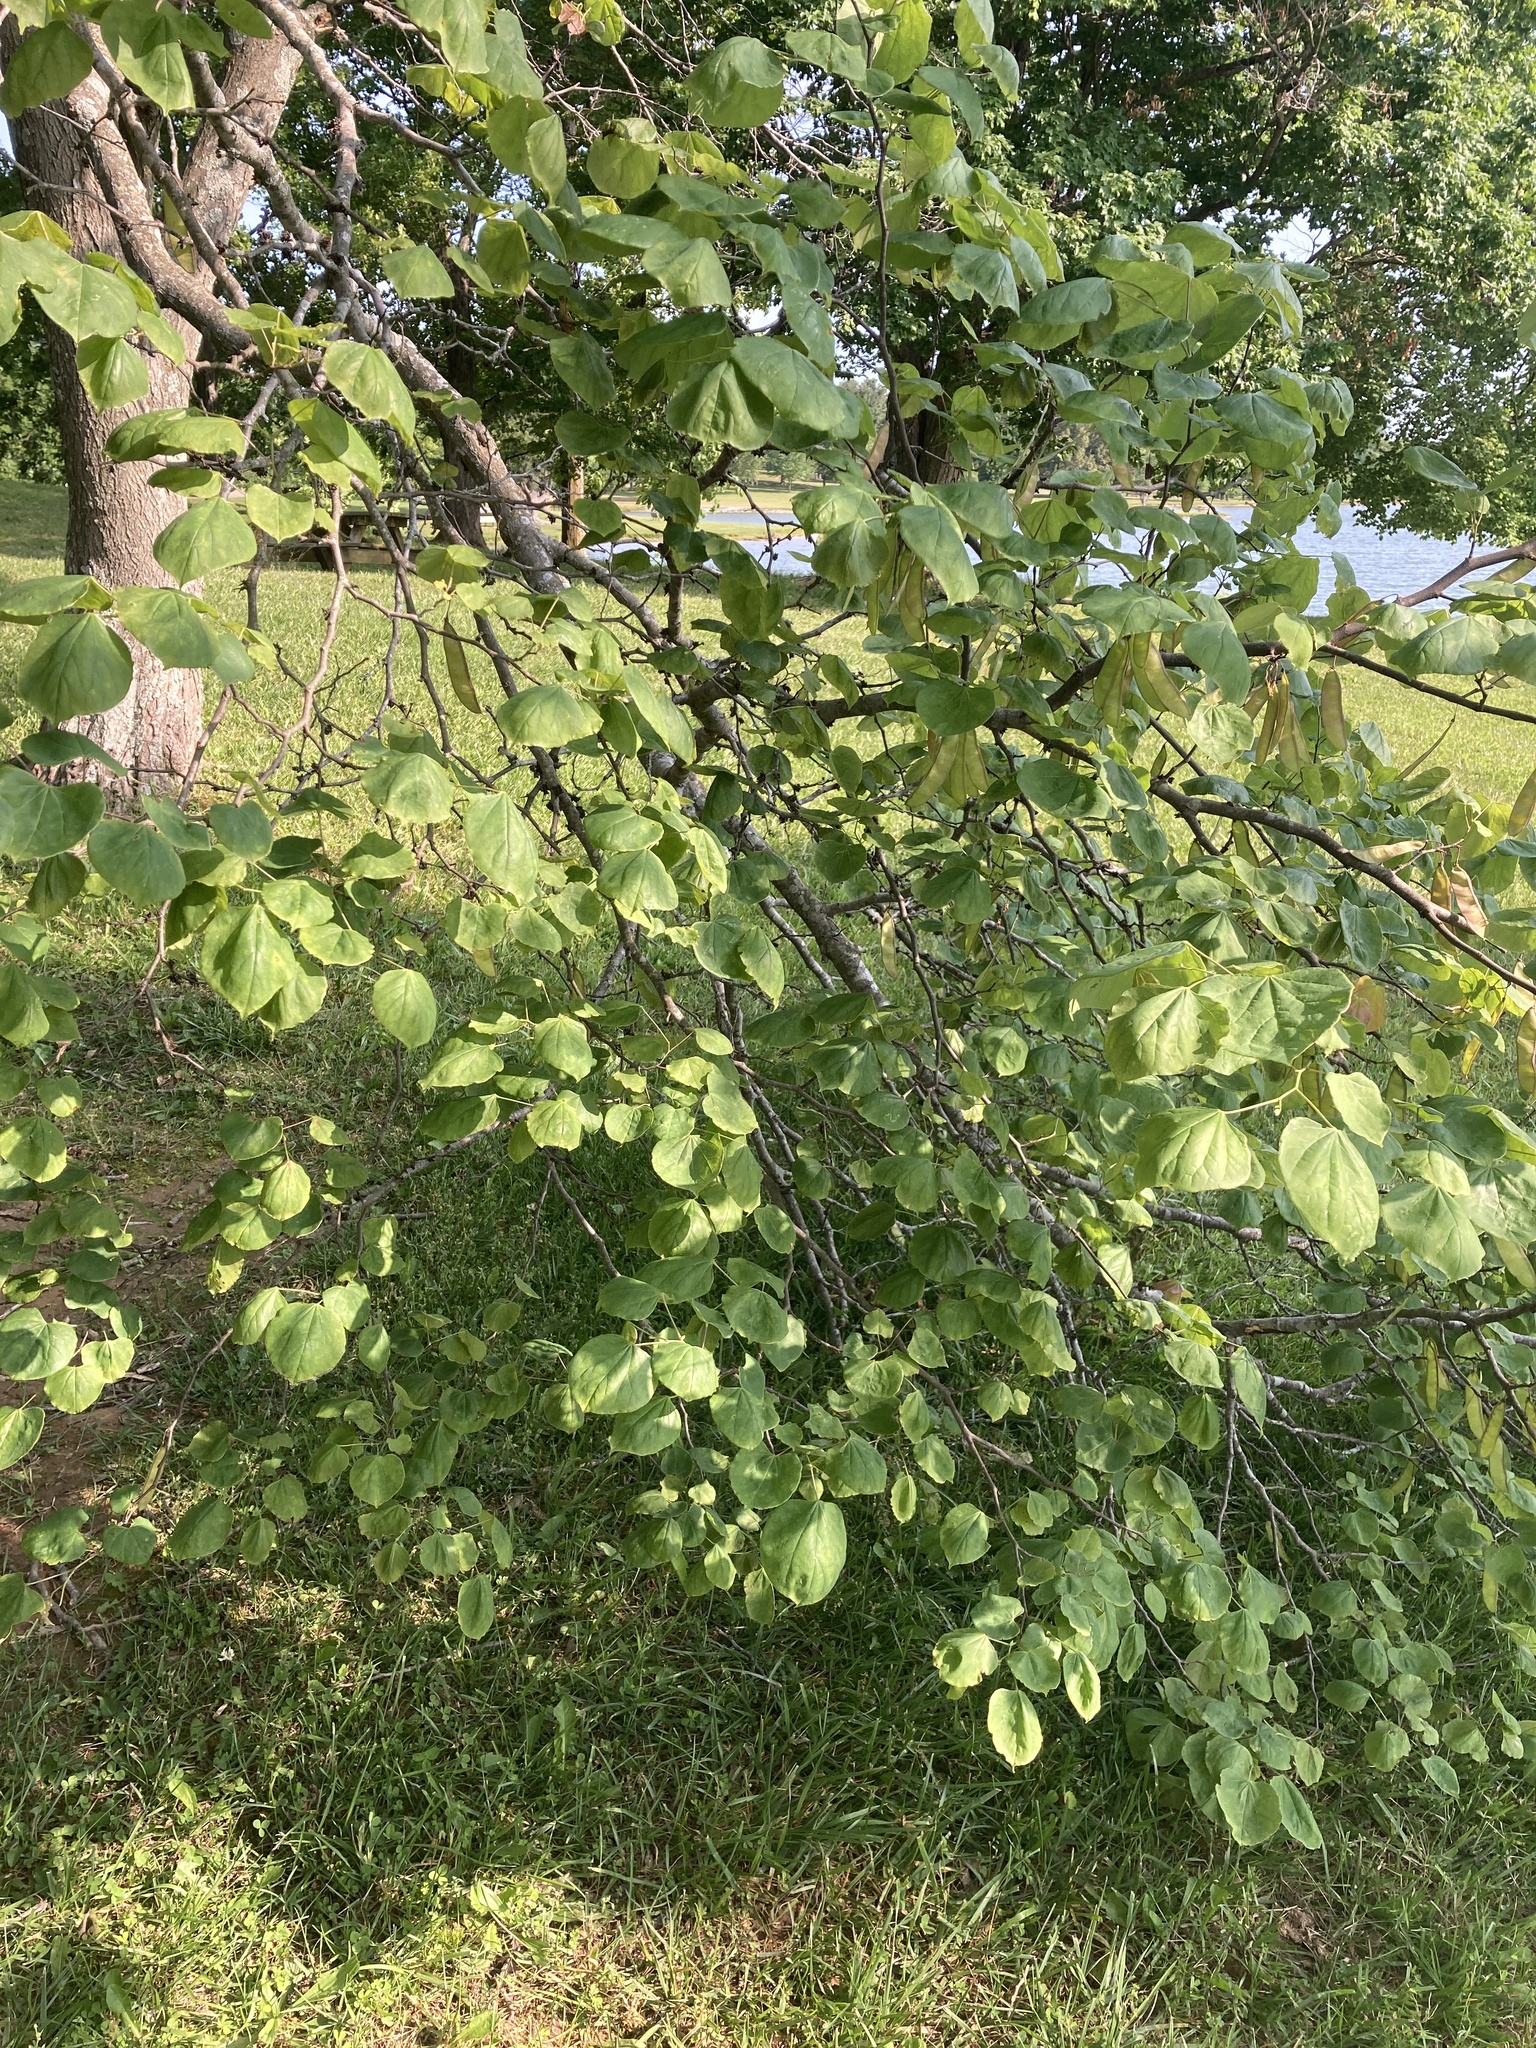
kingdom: Plantae
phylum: Tracheophyta
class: Magnoliopsida
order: Fabales
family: Fabaceae
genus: Cercis
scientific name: Cercis canadensis
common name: Eastern redbud
